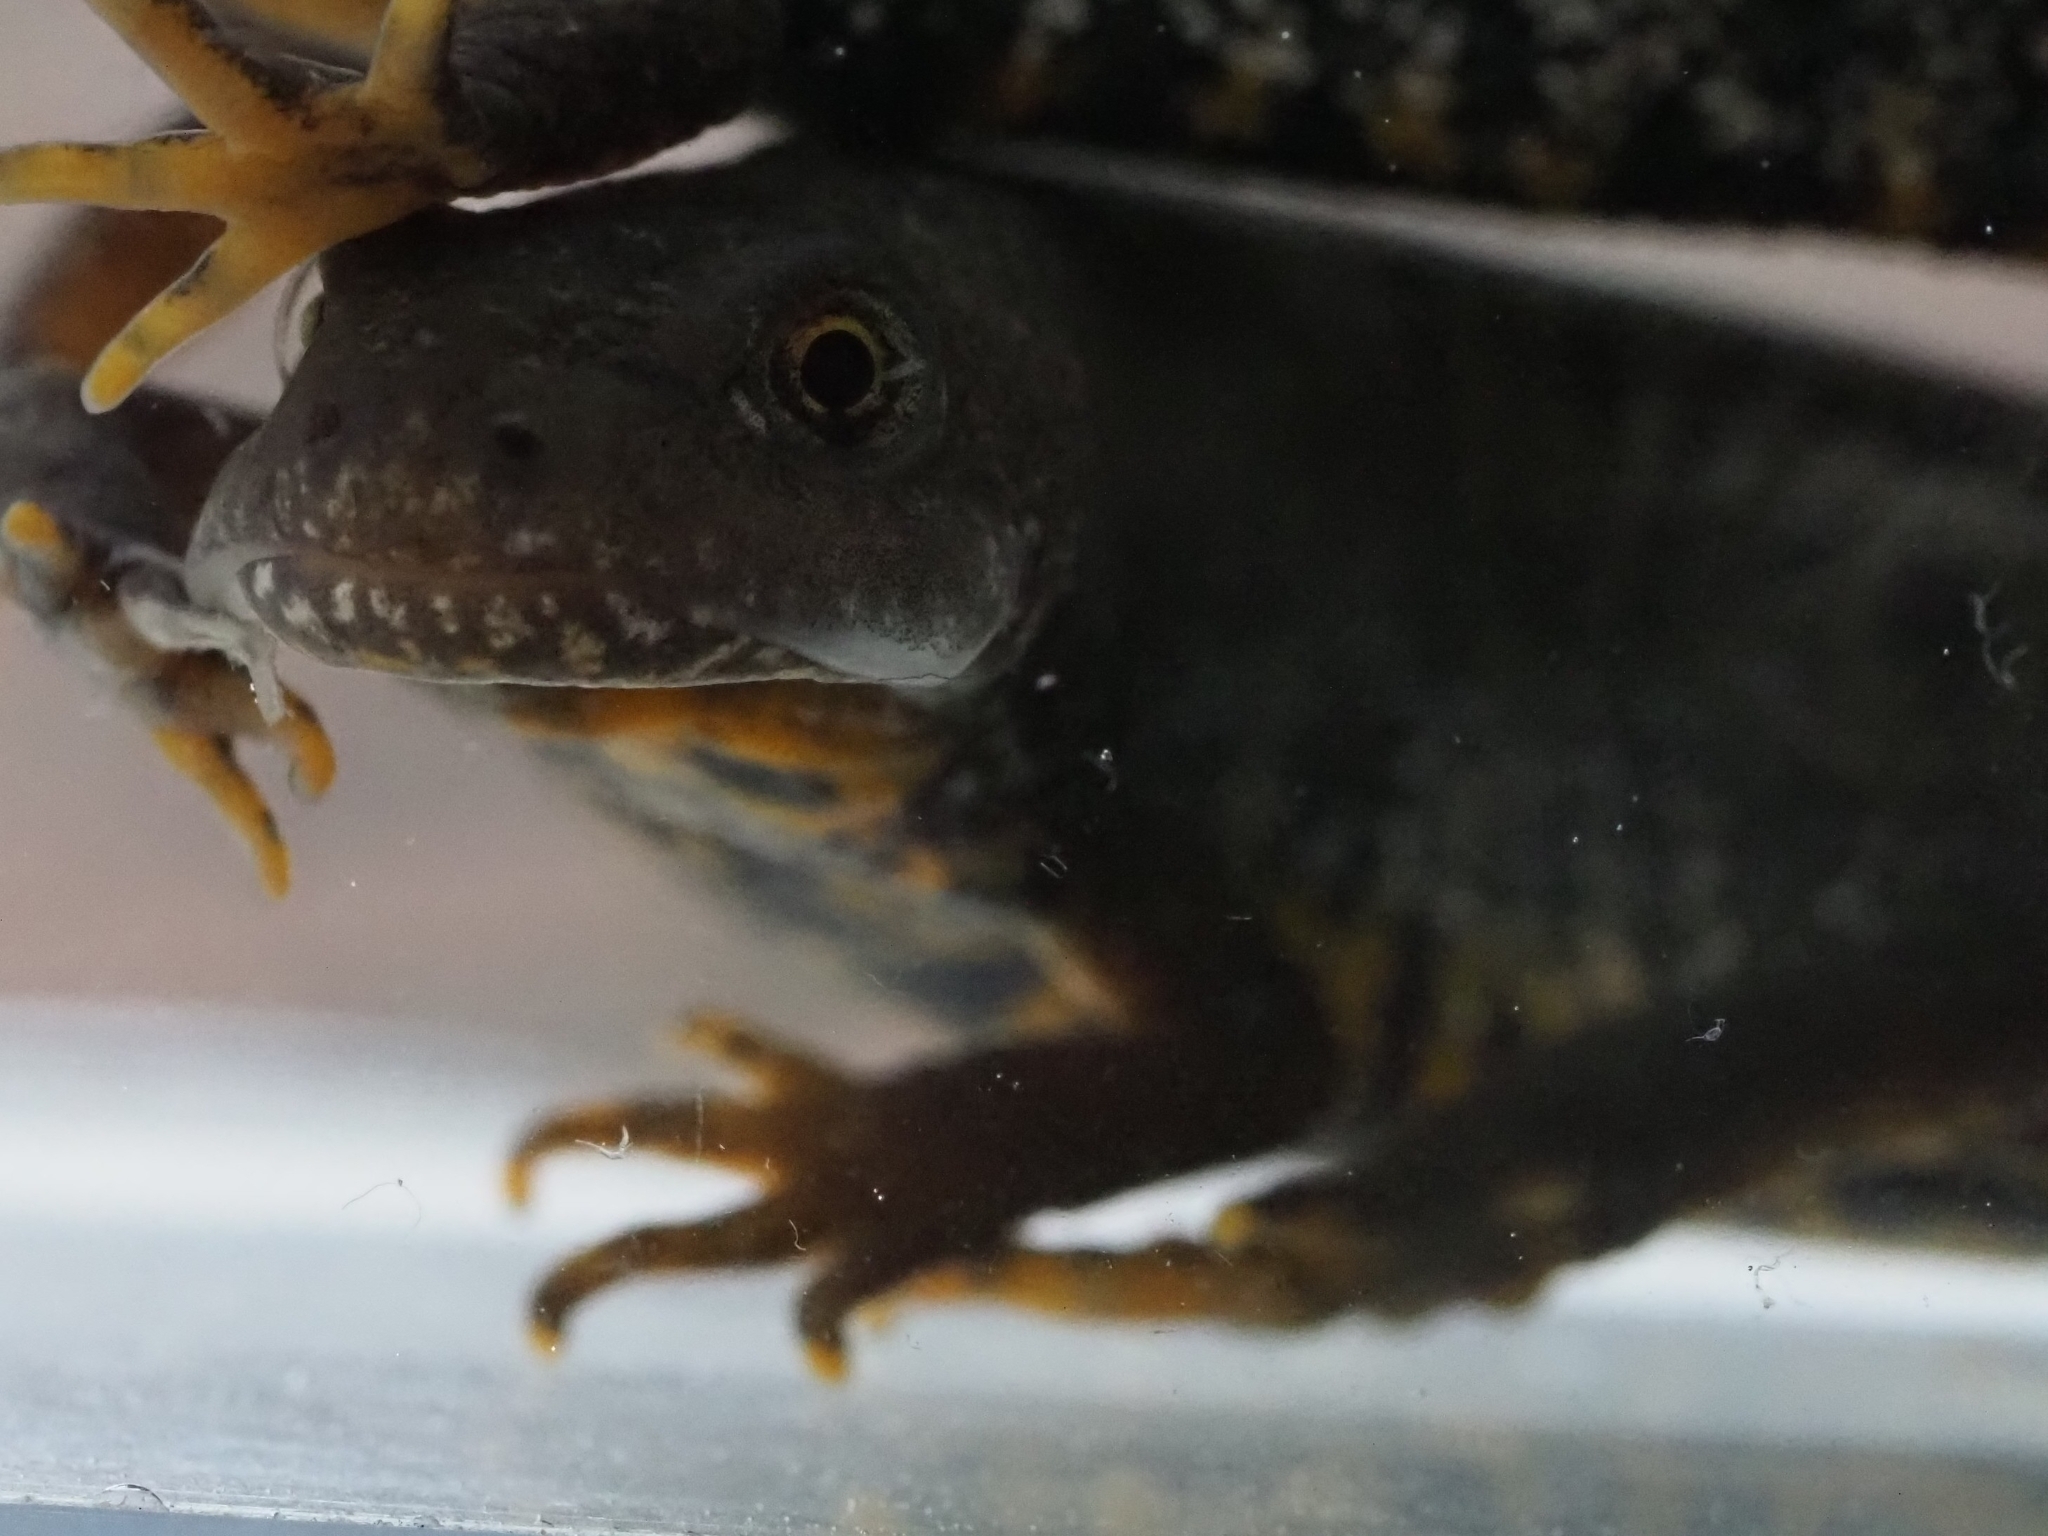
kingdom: Animalia
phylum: Chordata
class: Amphibia
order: Caudata
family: Salamandridae
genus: Triturus
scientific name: Triturus cristatus
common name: Crested newt
